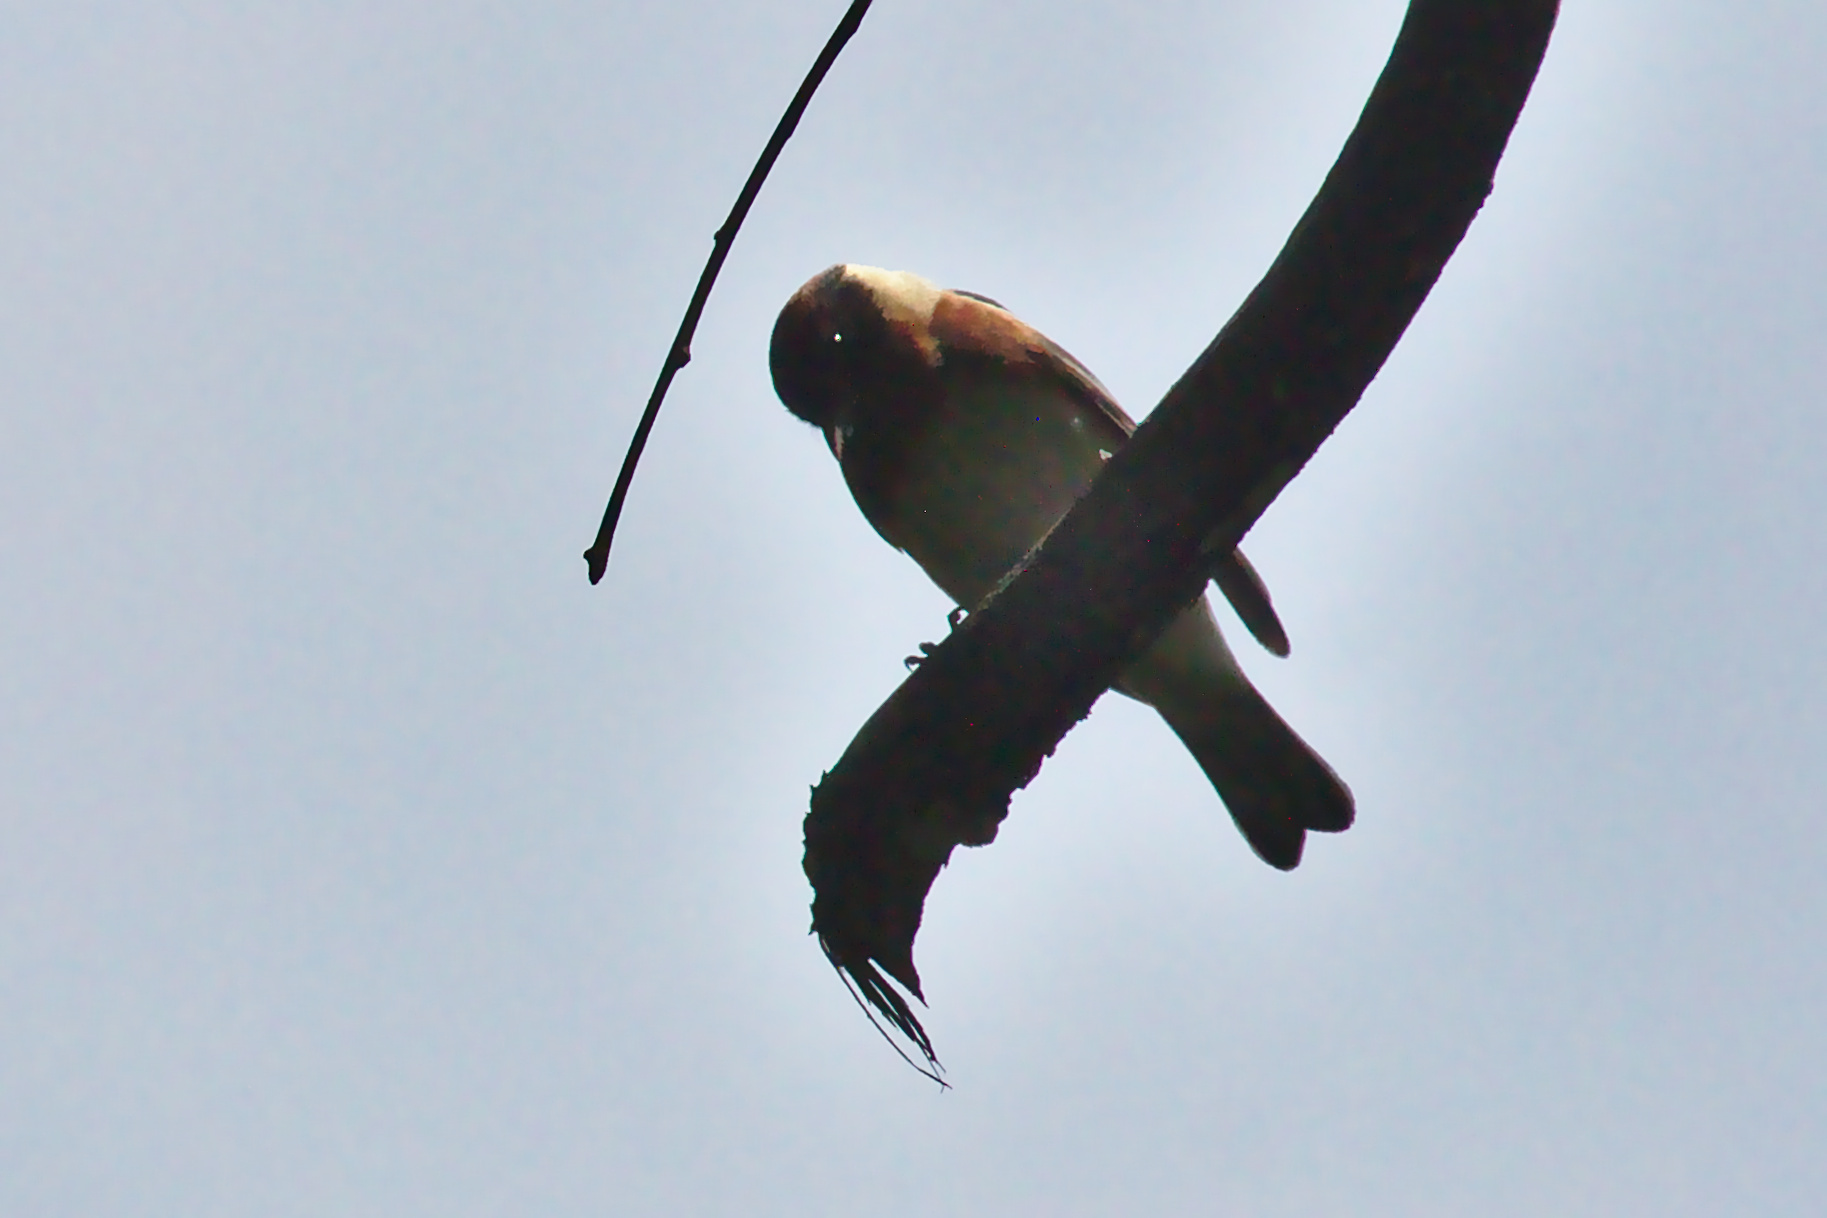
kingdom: Animalia
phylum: Chordata
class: Aves
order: Passeriformes
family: Parulidae
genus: Setophaga
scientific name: Setophaga castanea
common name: Bay-breasted warbler
